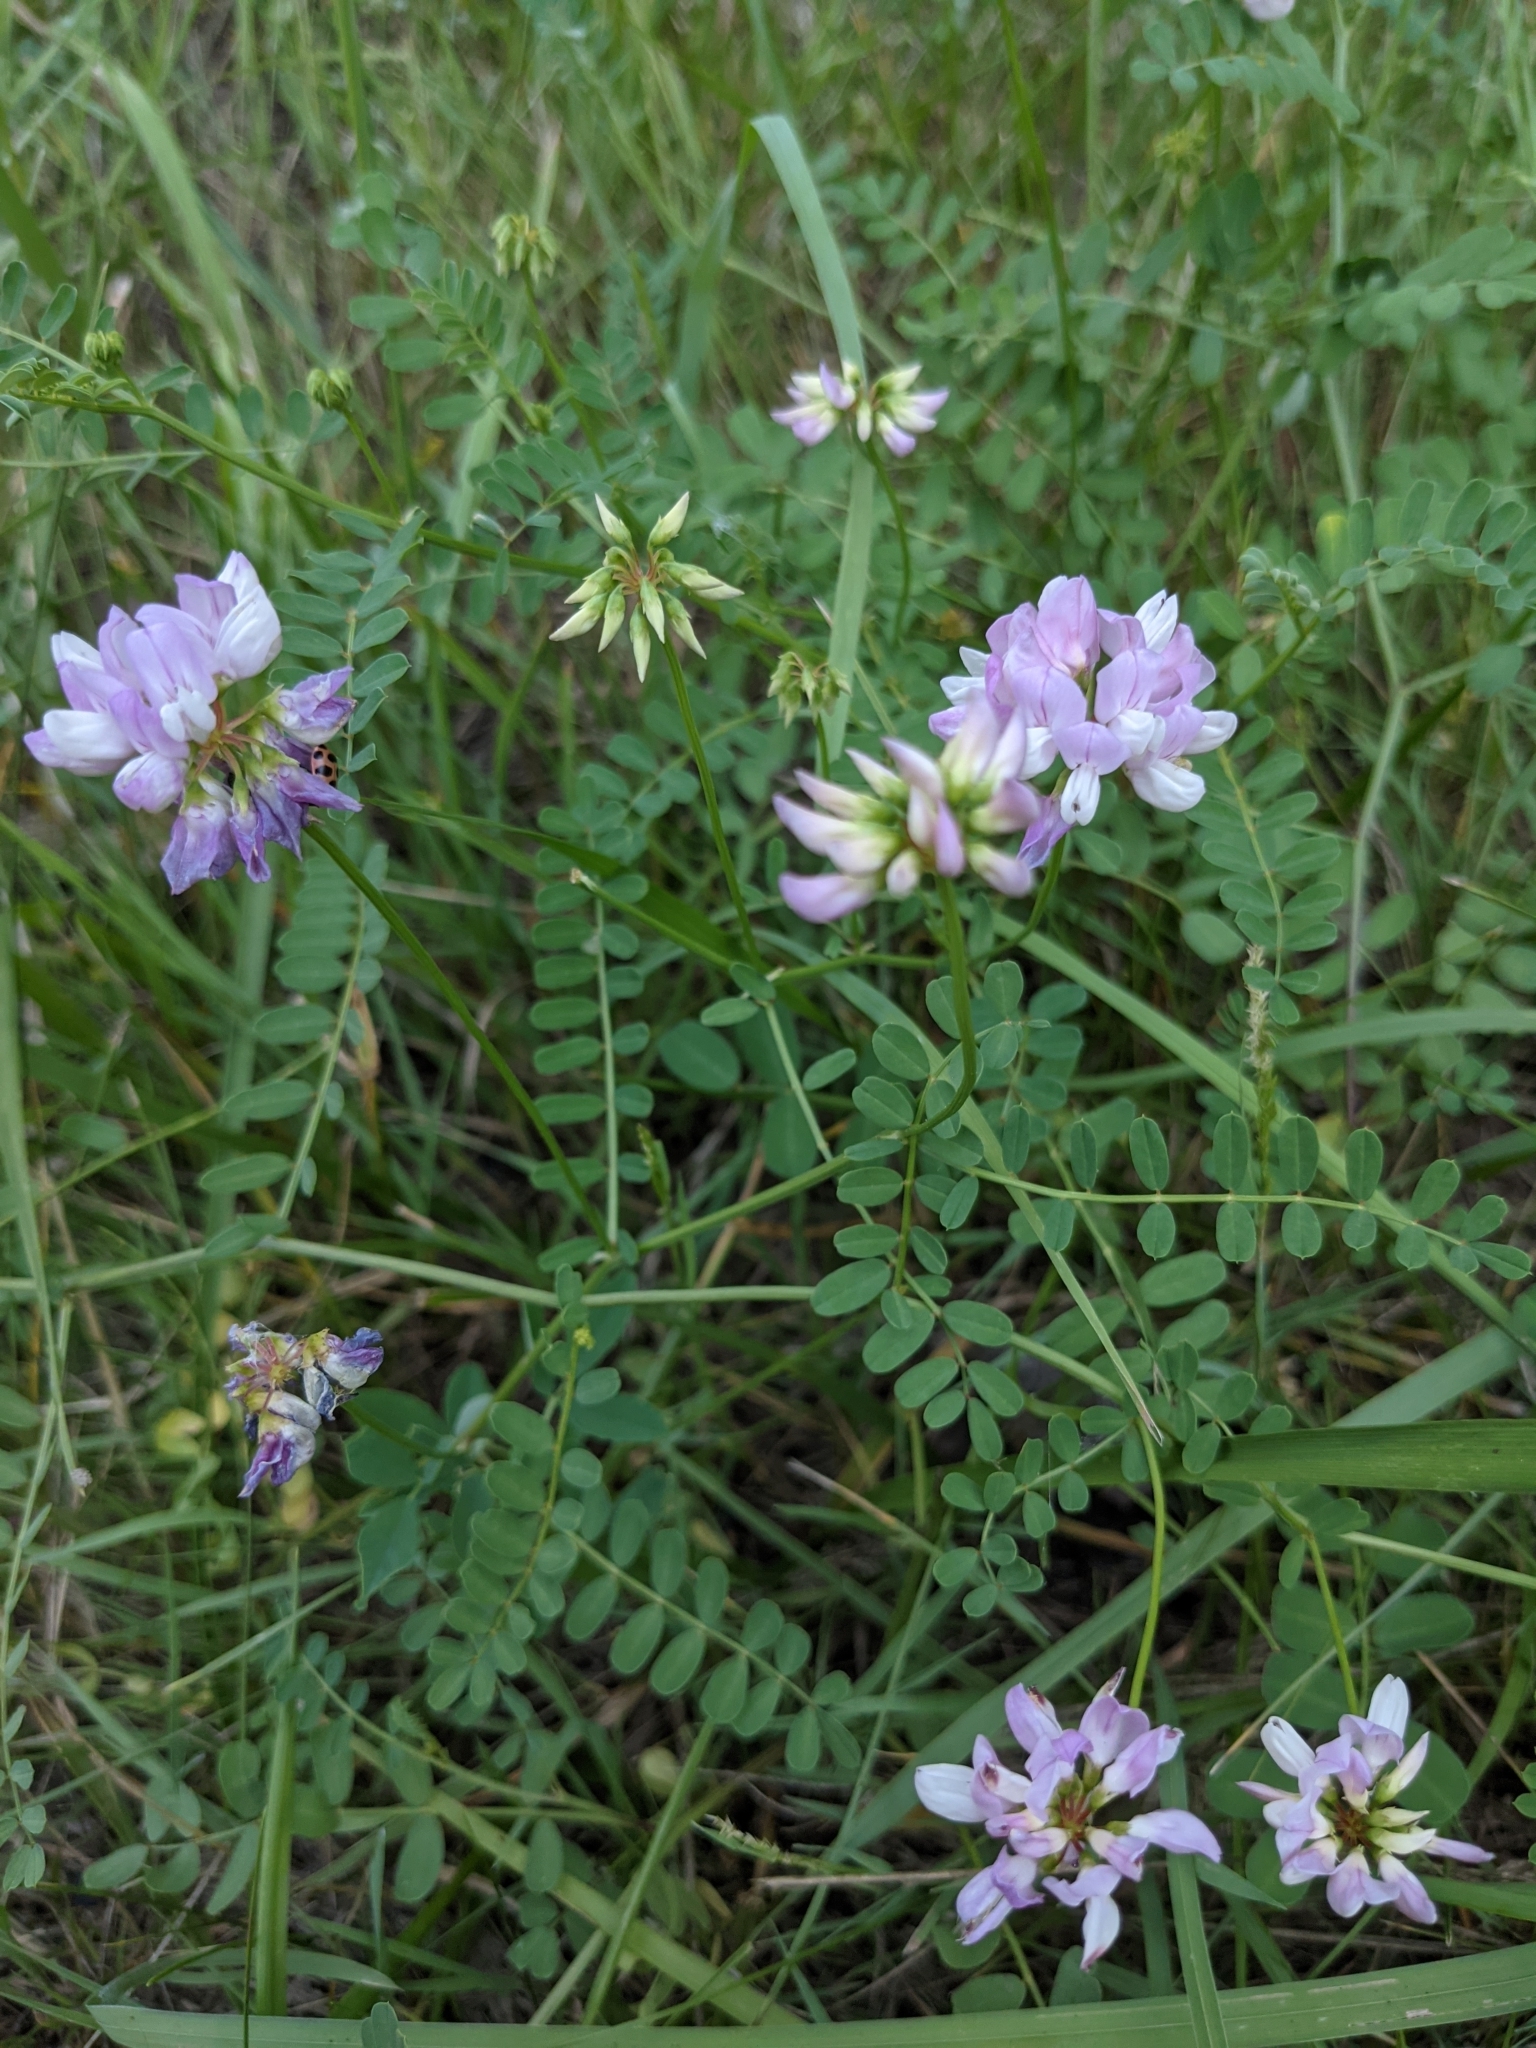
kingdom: Plantae
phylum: Tracheophyta
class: Magnoliopsida
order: Fabales
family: Fabaceae
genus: Coronilla
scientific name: Coronilla varia
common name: Crownvetch
